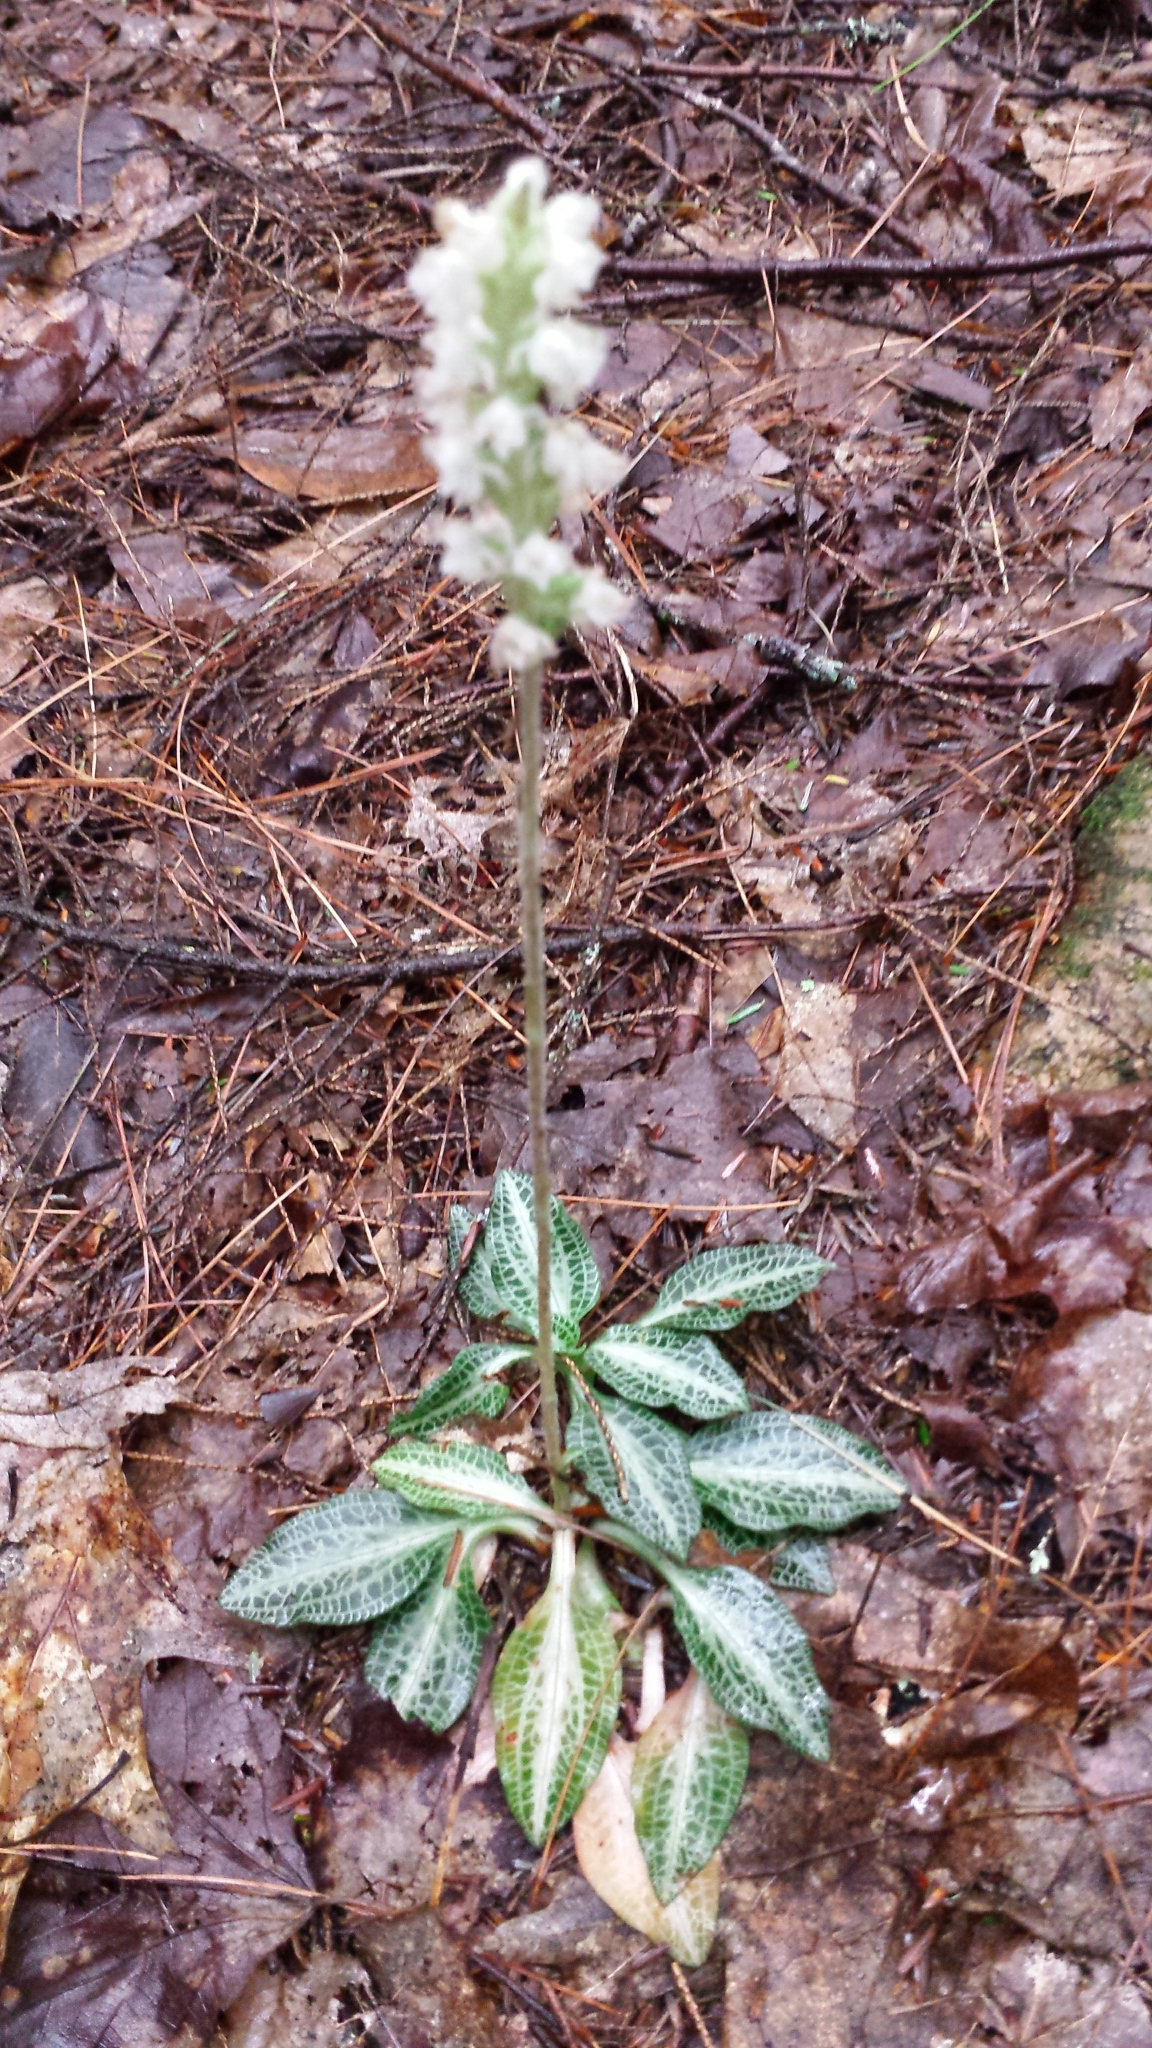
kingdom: Plantae
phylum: Tracheophyta
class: Liliopsida
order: Asparagales
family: Orchidaceae
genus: Goodyera
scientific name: Goodyera pubescens
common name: Downy rattlesnake-plantain
